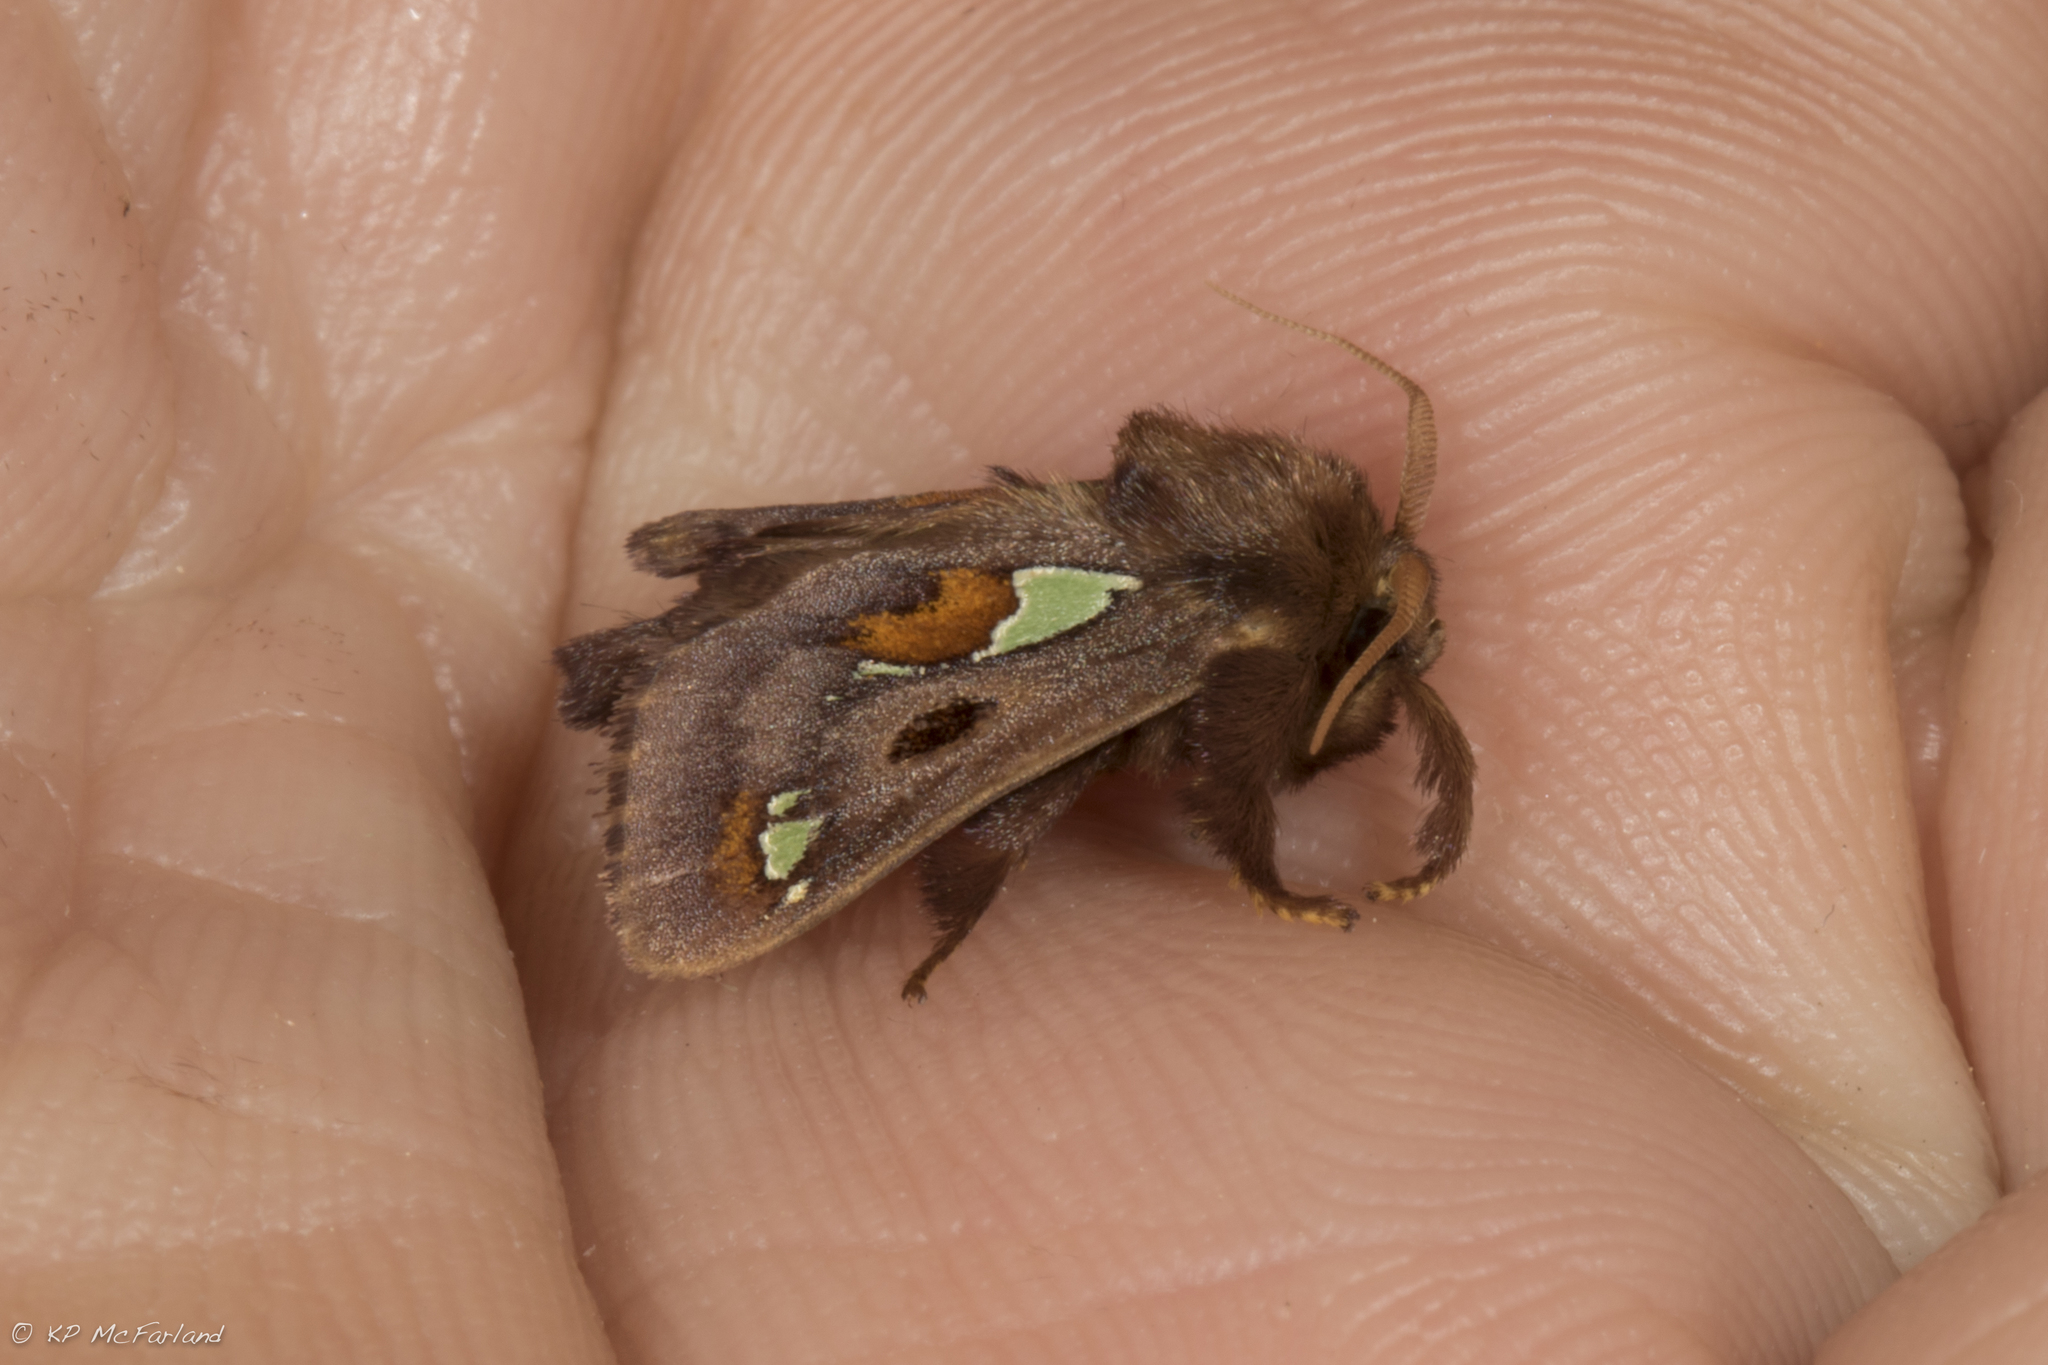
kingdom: Animalia
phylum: Arthropoda
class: Insecta
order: Lepidoptera
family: Limacodidae
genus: Euclea
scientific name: Euclea delphinii
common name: Spiny oak-slug moth
